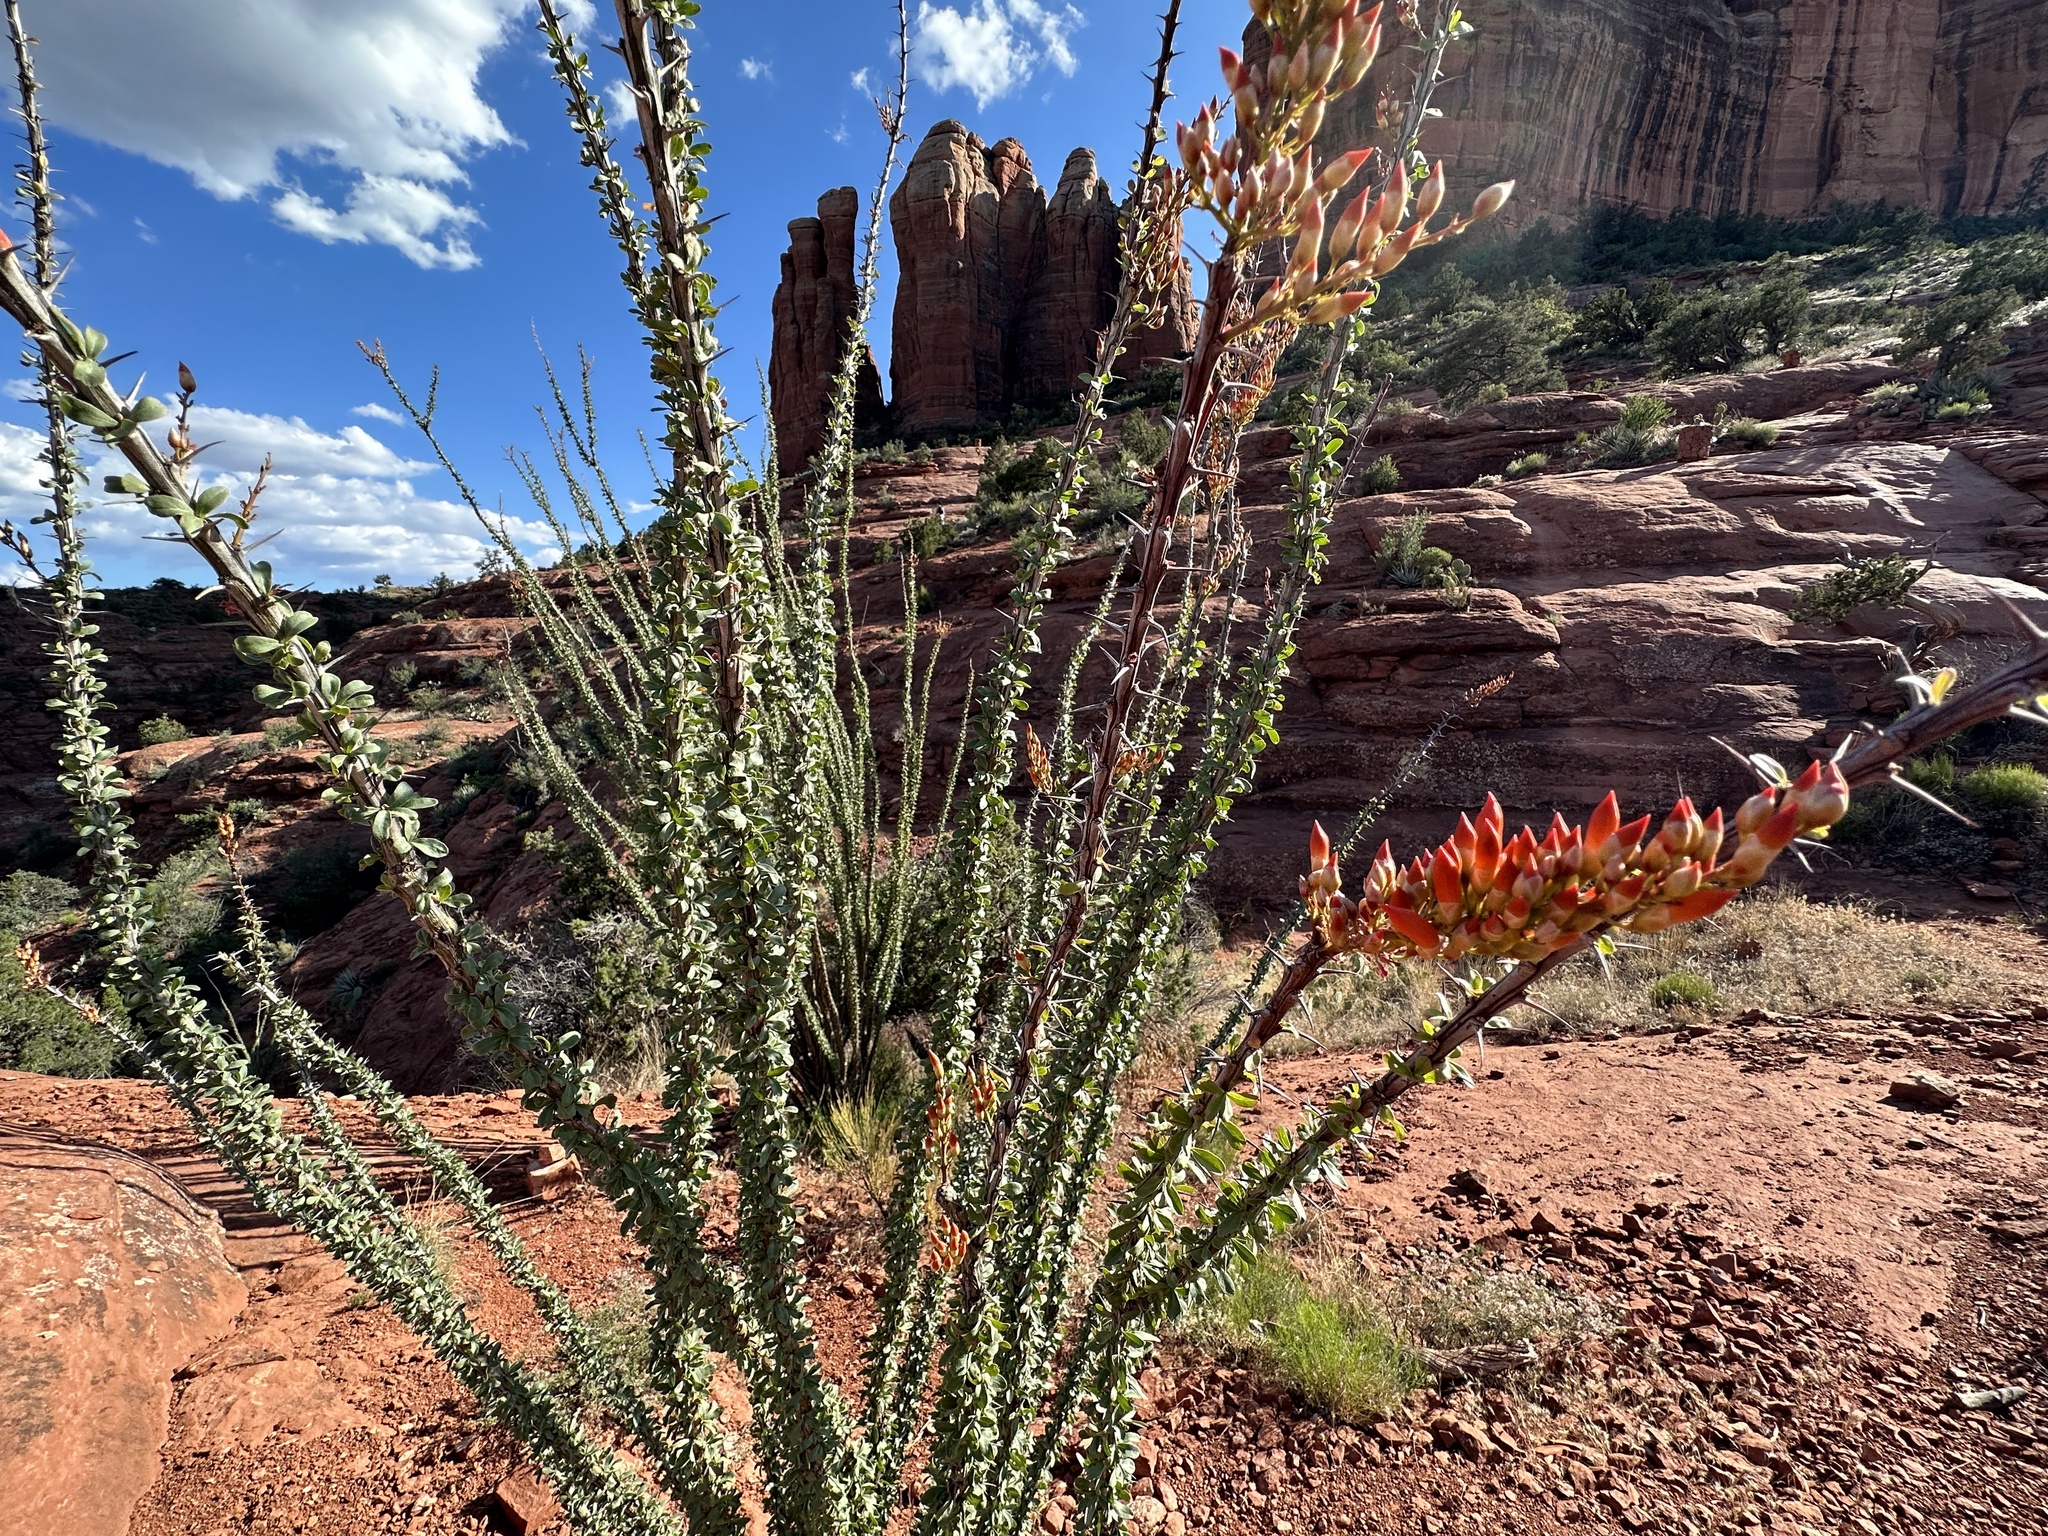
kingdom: Plantae
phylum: Tracheophyta
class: Magnoliopsida
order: Ericales
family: Fouquieriaceae
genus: Fouquieria
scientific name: Fouquieria splendens
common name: Vine-cactus
